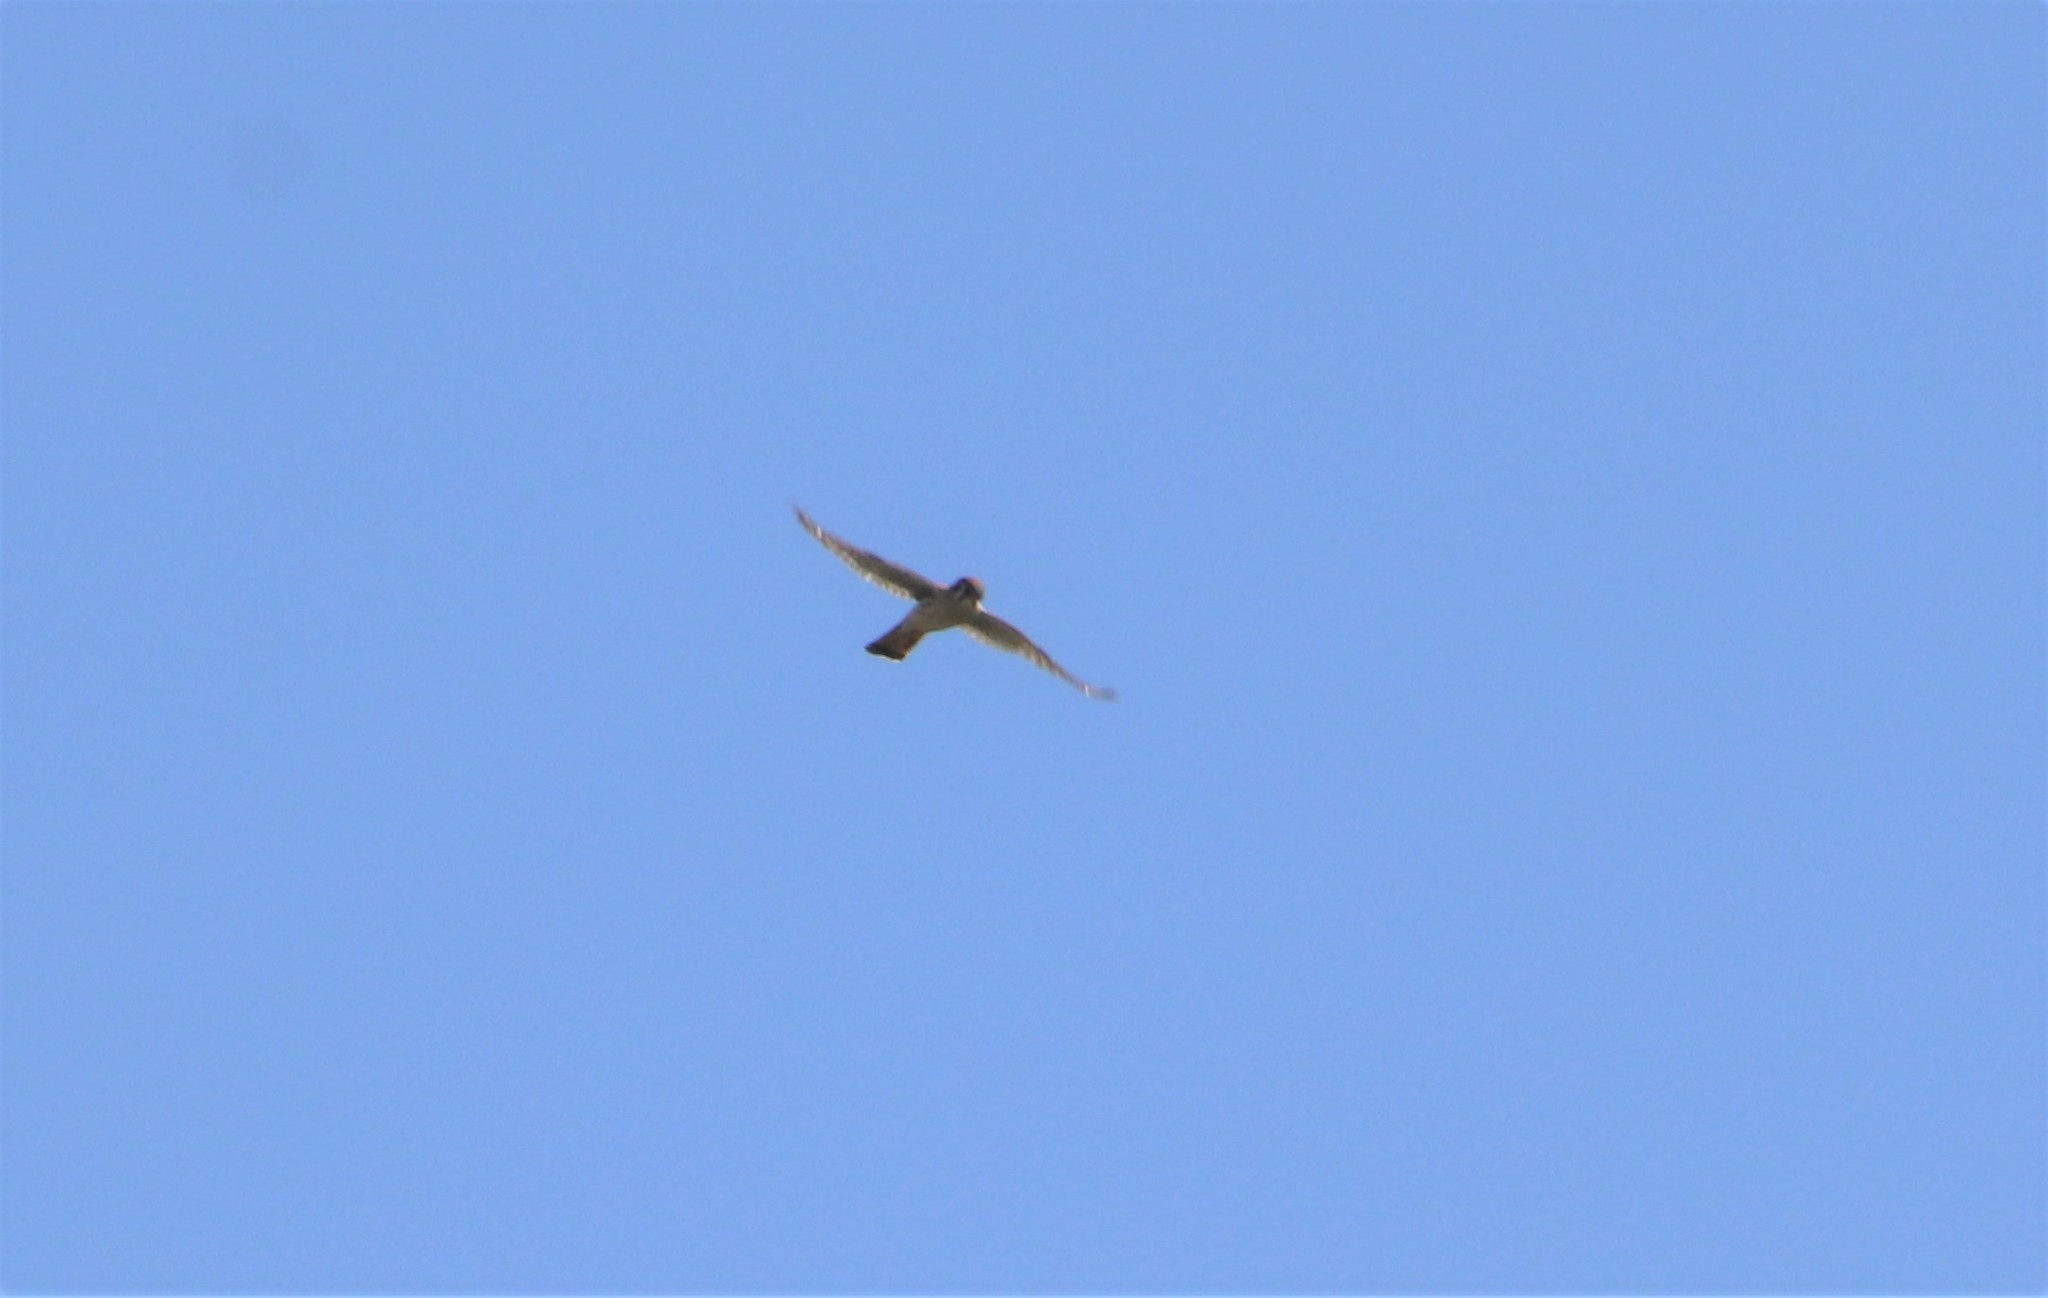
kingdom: Animalia
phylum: Chordata
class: Aves
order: Falconiformes
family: Falconidae
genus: Falco
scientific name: Falco sparverius
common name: American kestrel
